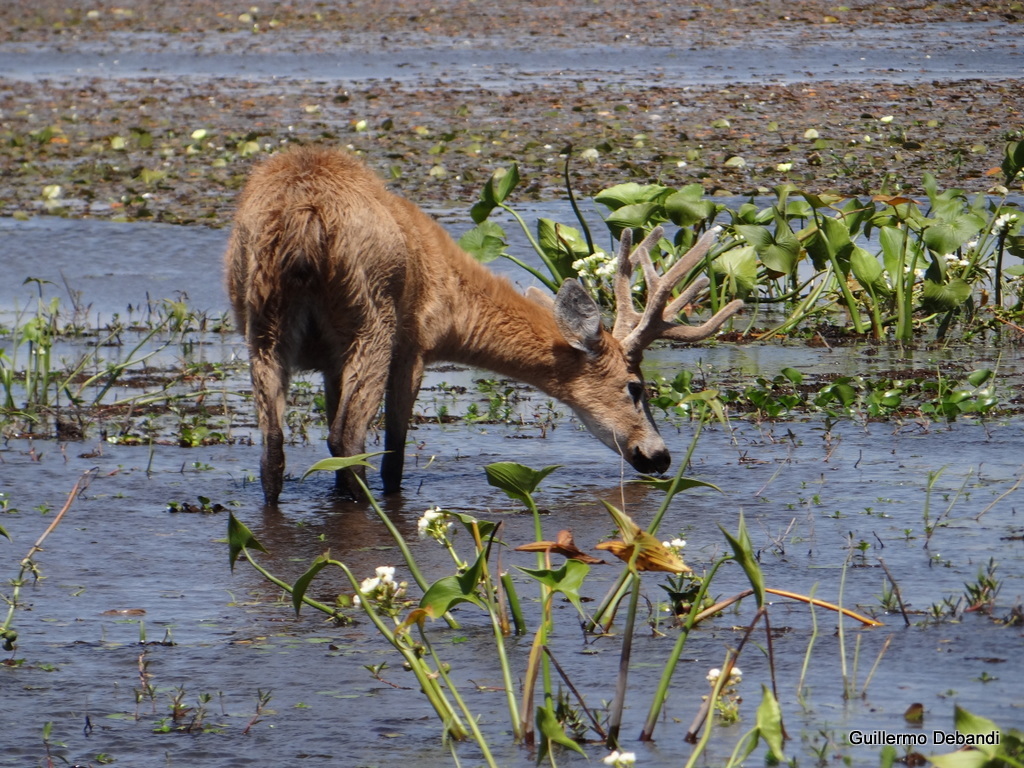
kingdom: Animalia
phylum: Chordata
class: Mammalia
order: Artiodactyla
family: Cervidae
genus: Blastocerus
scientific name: Blastocerus dichotomus
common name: Marsh deer
